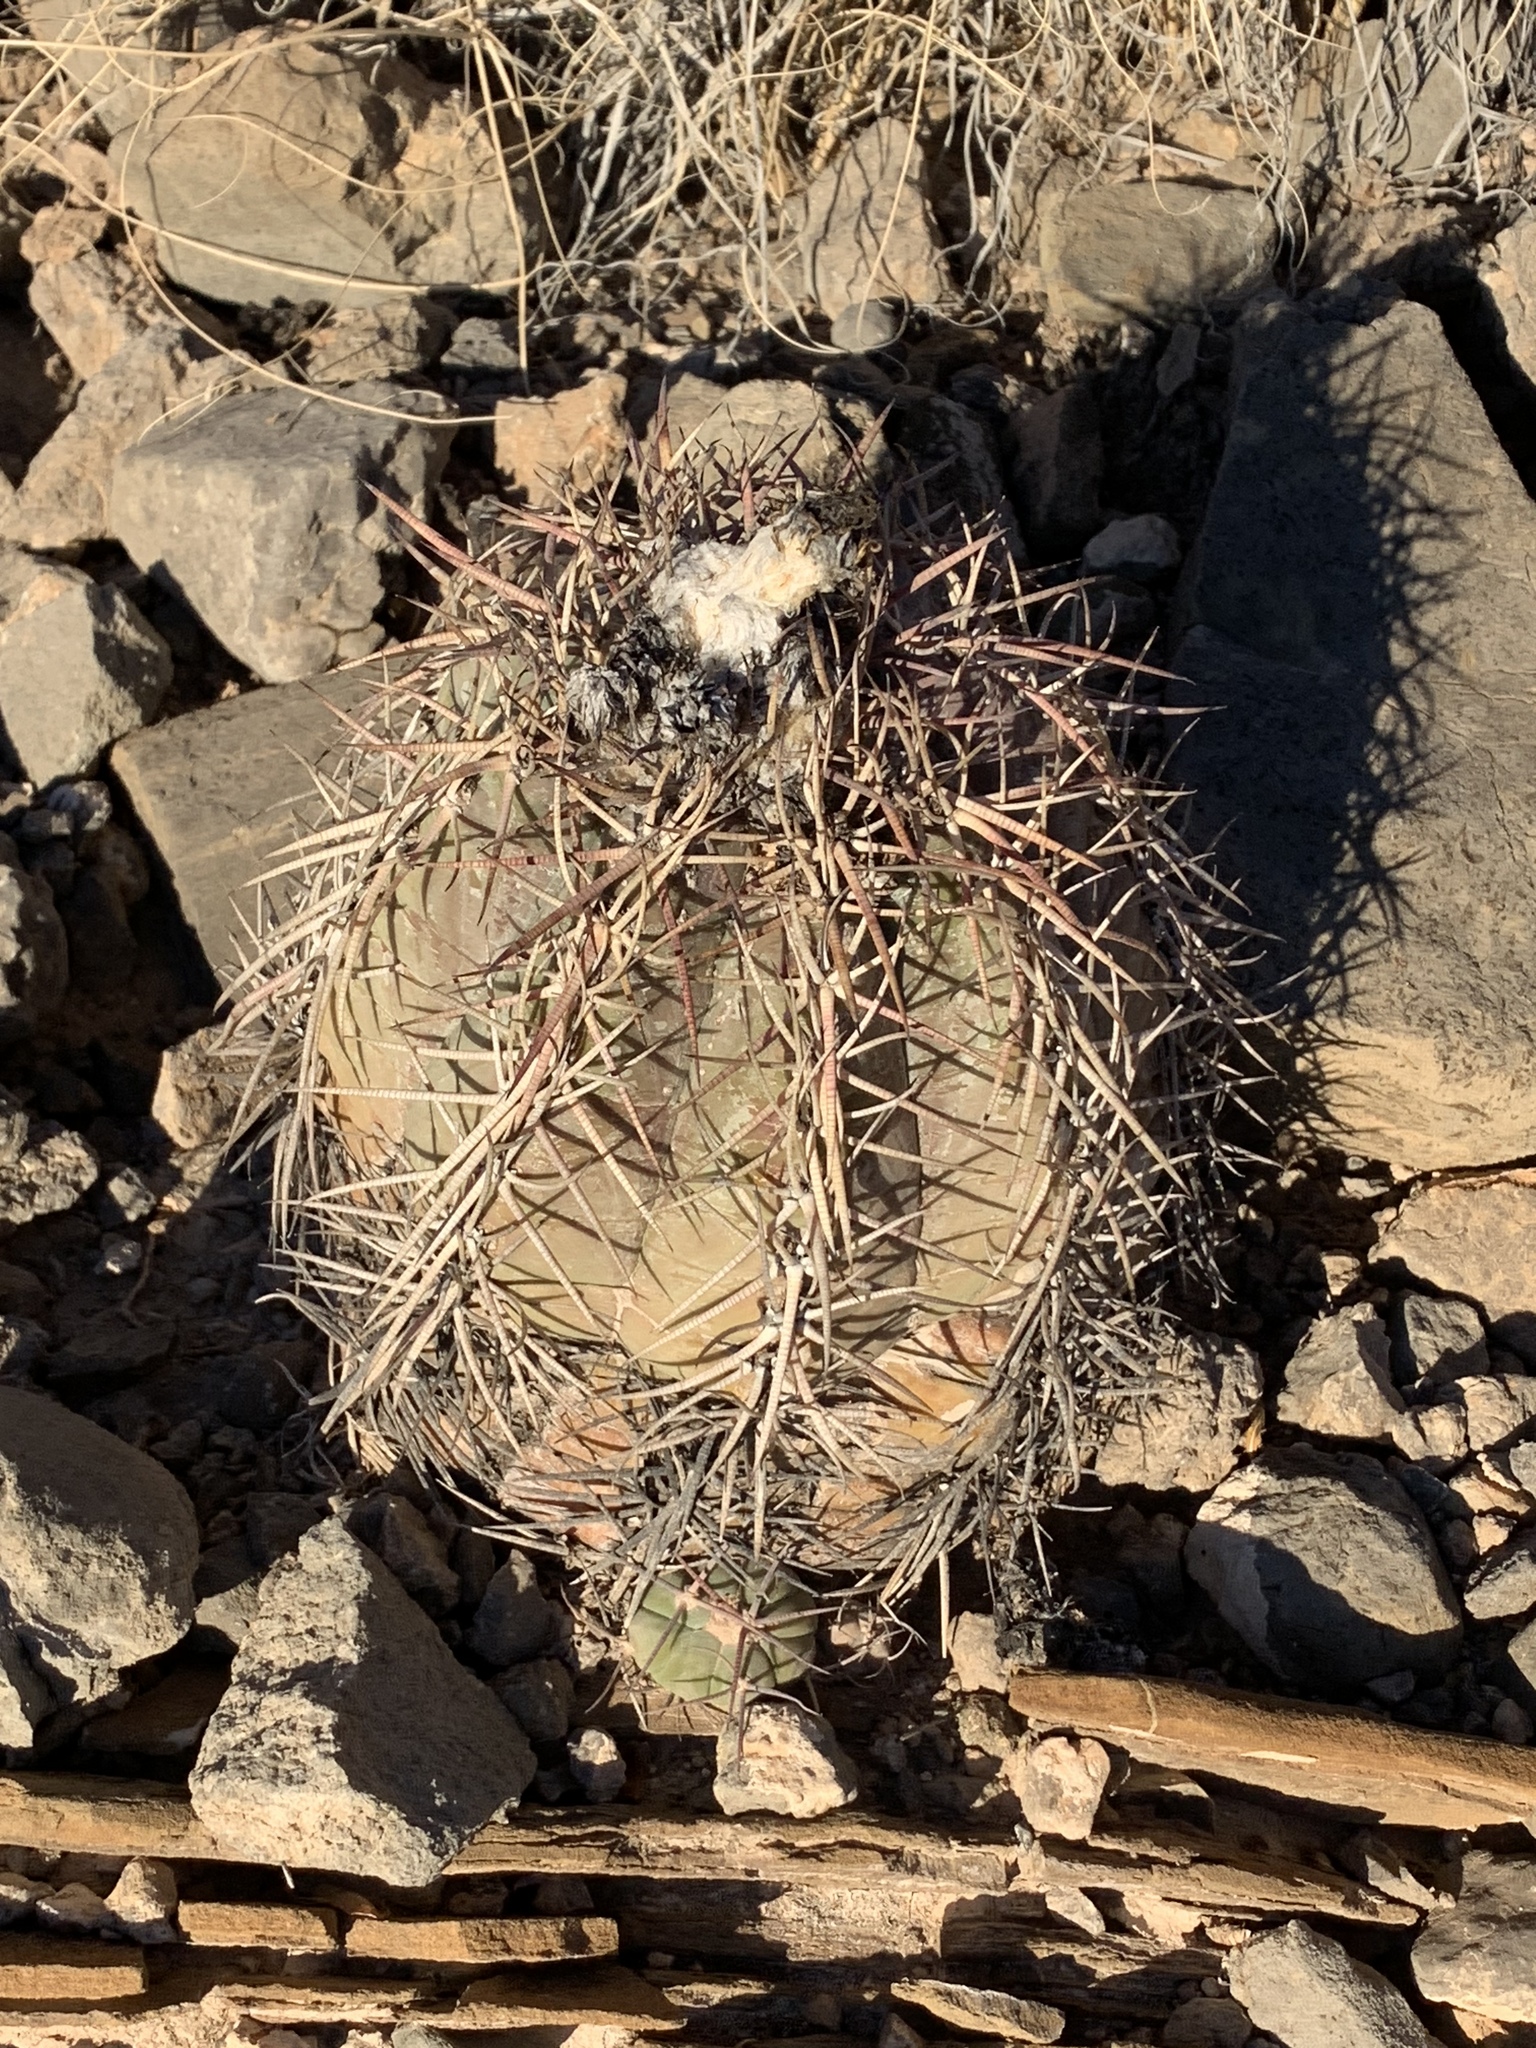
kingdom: Plantae
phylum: Tracheophyta
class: Magnoliopsida
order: Caryophyllales
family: Cactaceae
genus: Echinocactus
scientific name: Echinocactus horizonthalonius
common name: Devilshead
